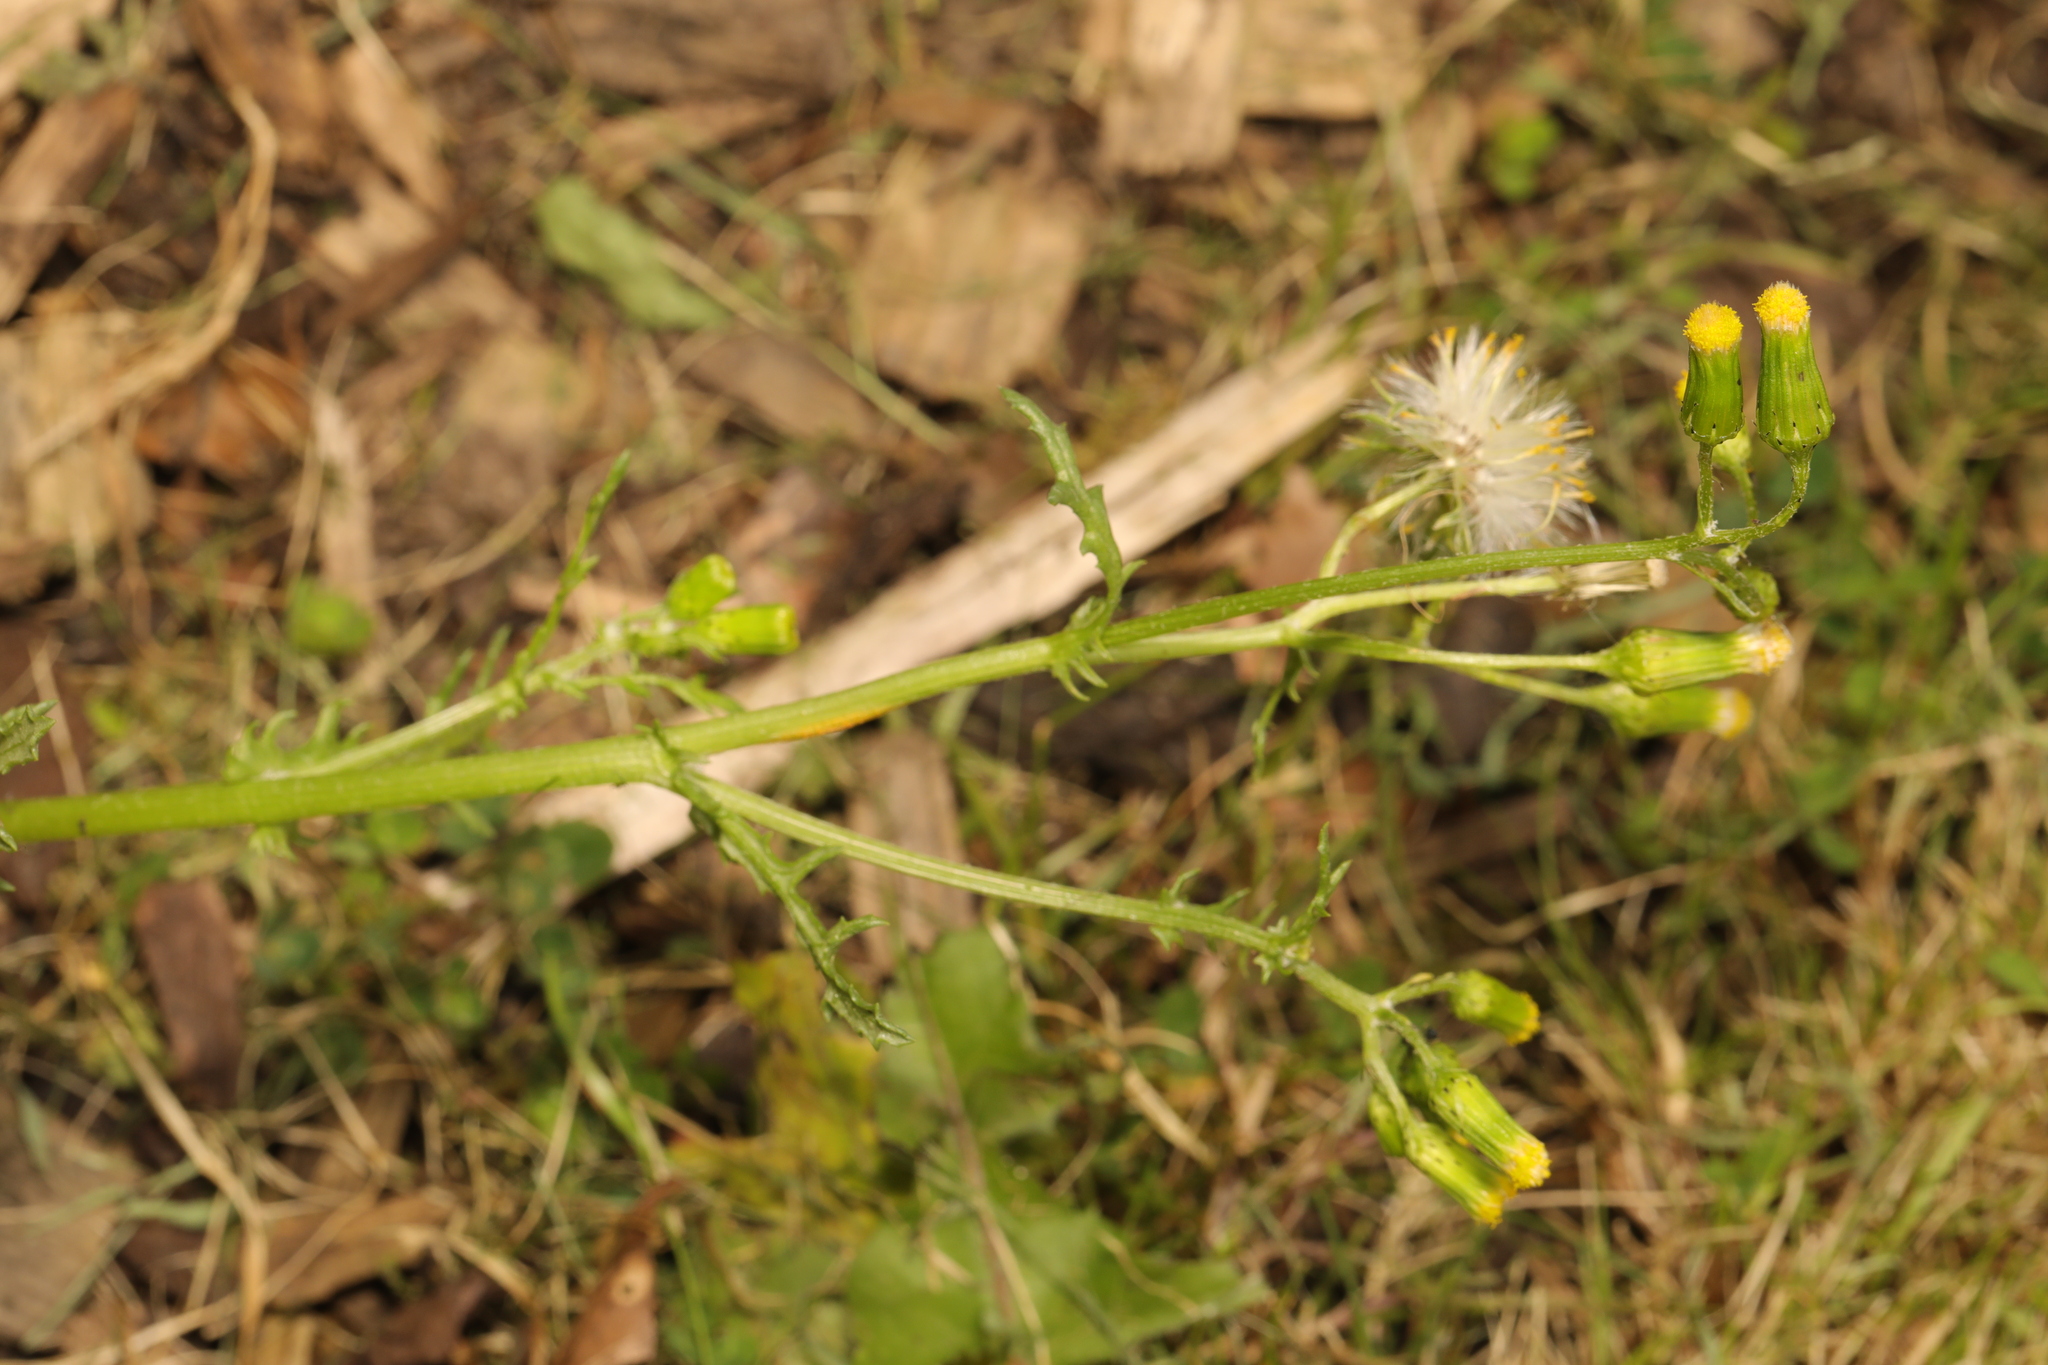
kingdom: Plantae
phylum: Tracheophyta
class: Magnoliopsida
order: Asterales
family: Asteraceae
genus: Senecio
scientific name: Senecio vulgaris
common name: Old-man-in-the-spring
